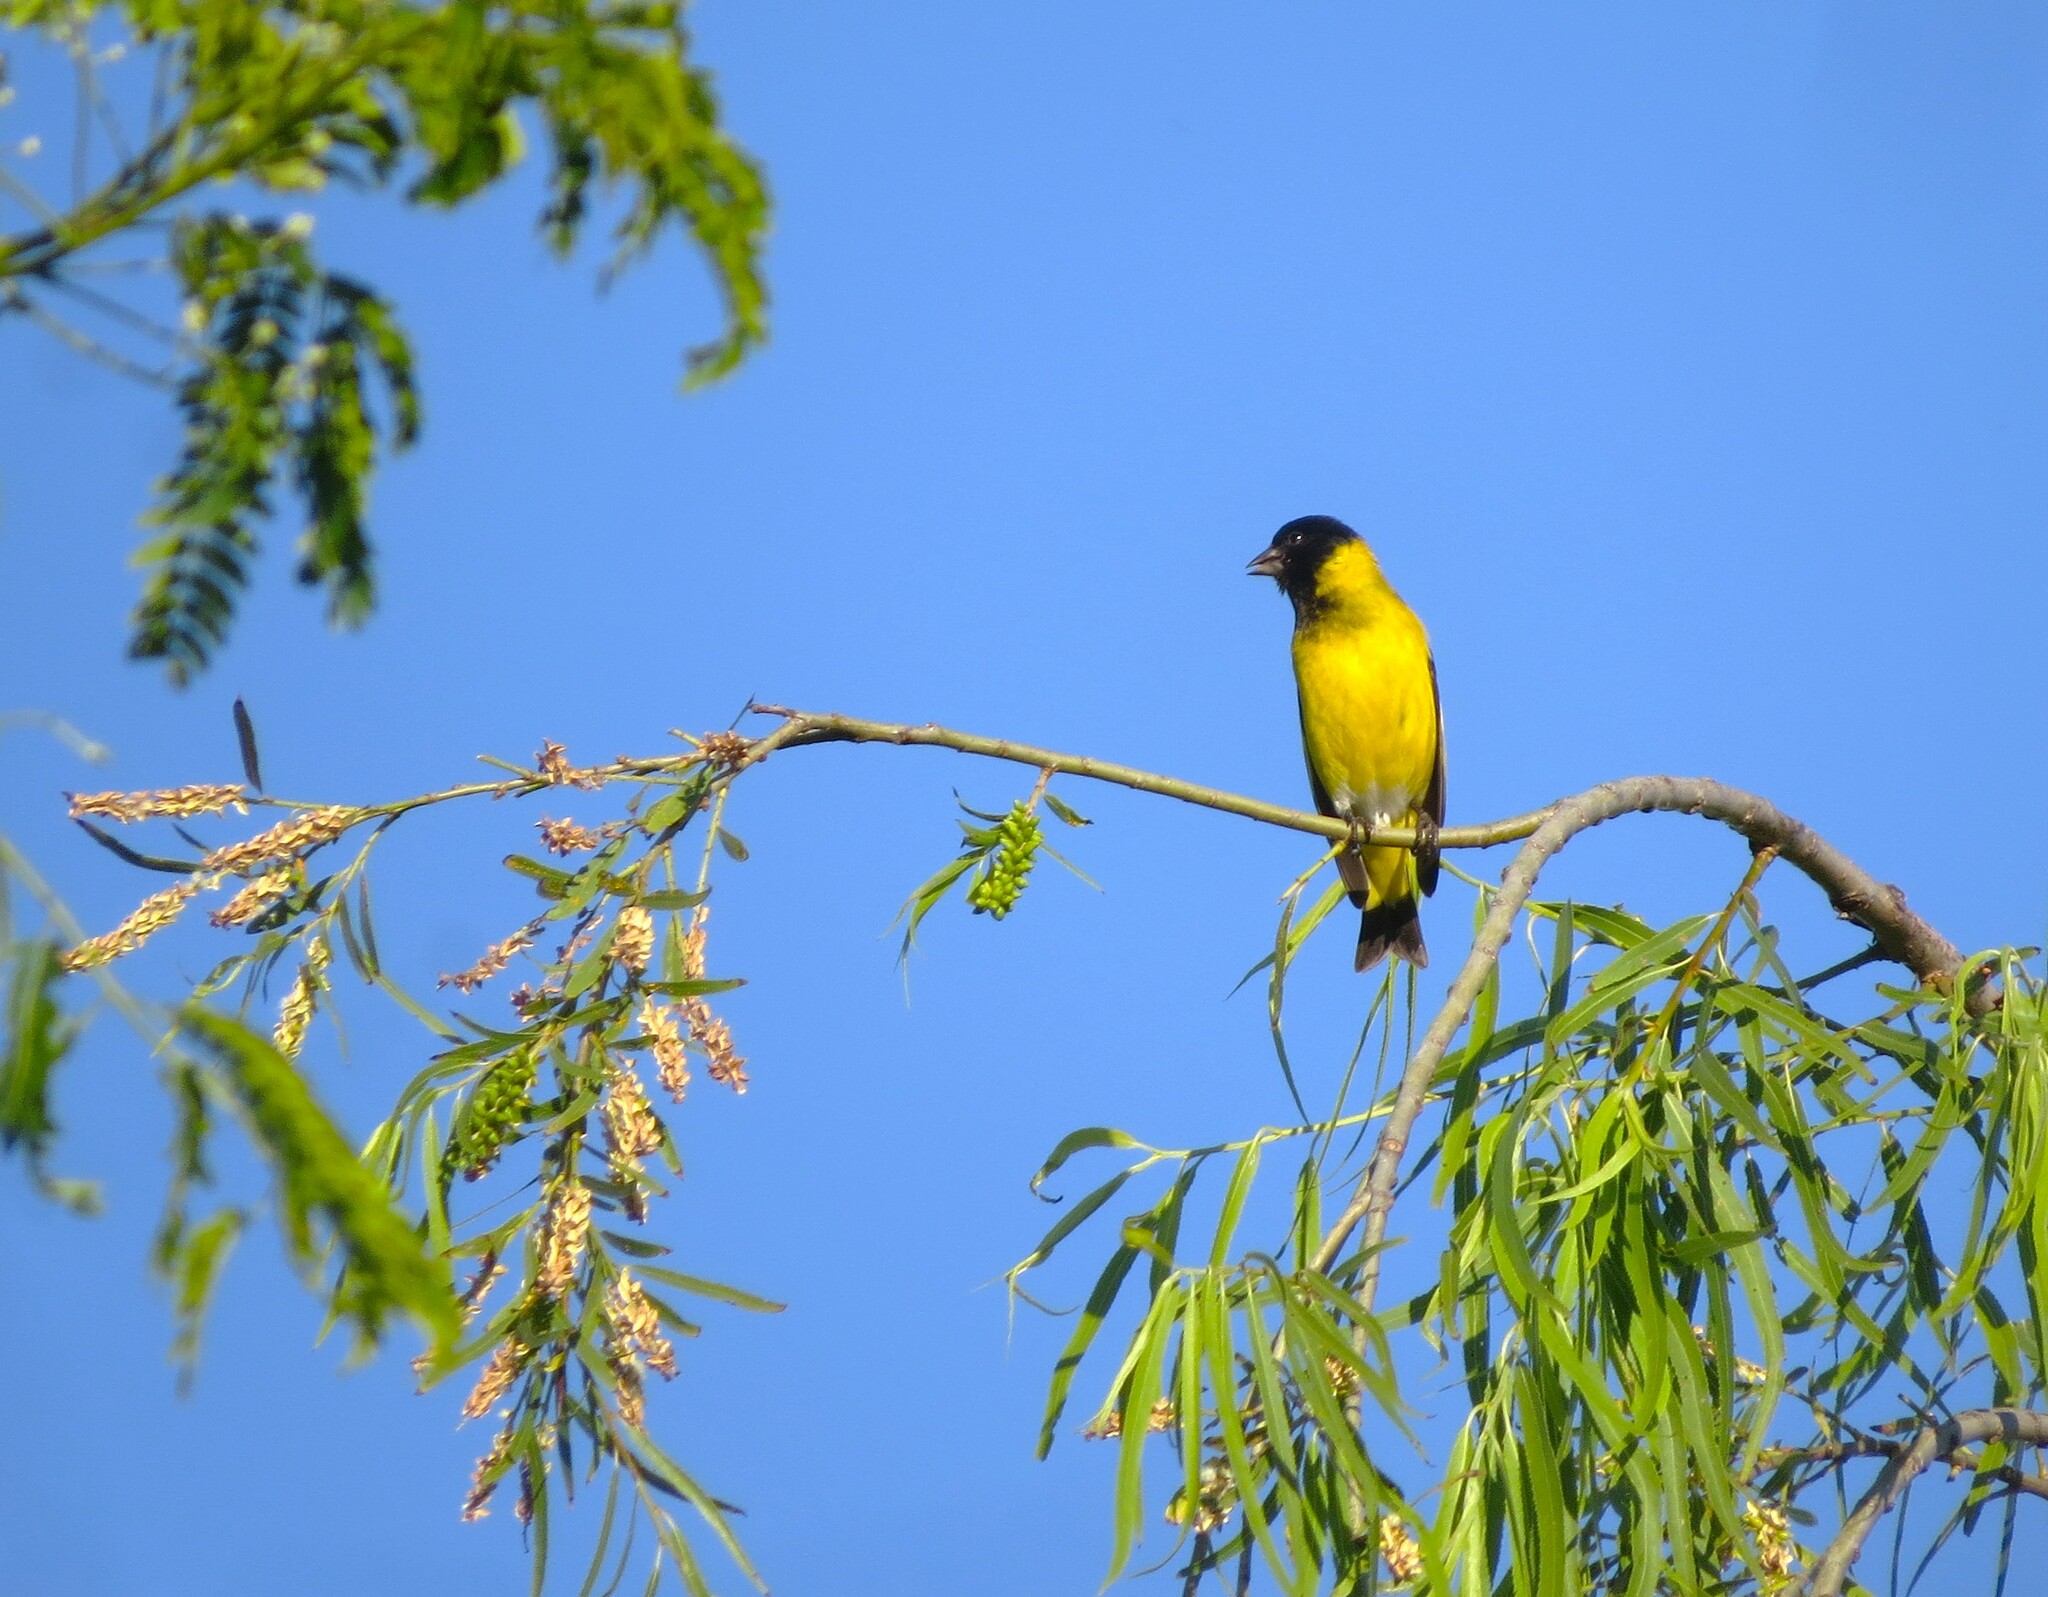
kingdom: Animalia
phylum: Chordata
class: Aves
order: Passeriformes
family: Fringillidae
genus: Spinus
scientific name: Spinus magellanicus
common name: Hooded siskin
